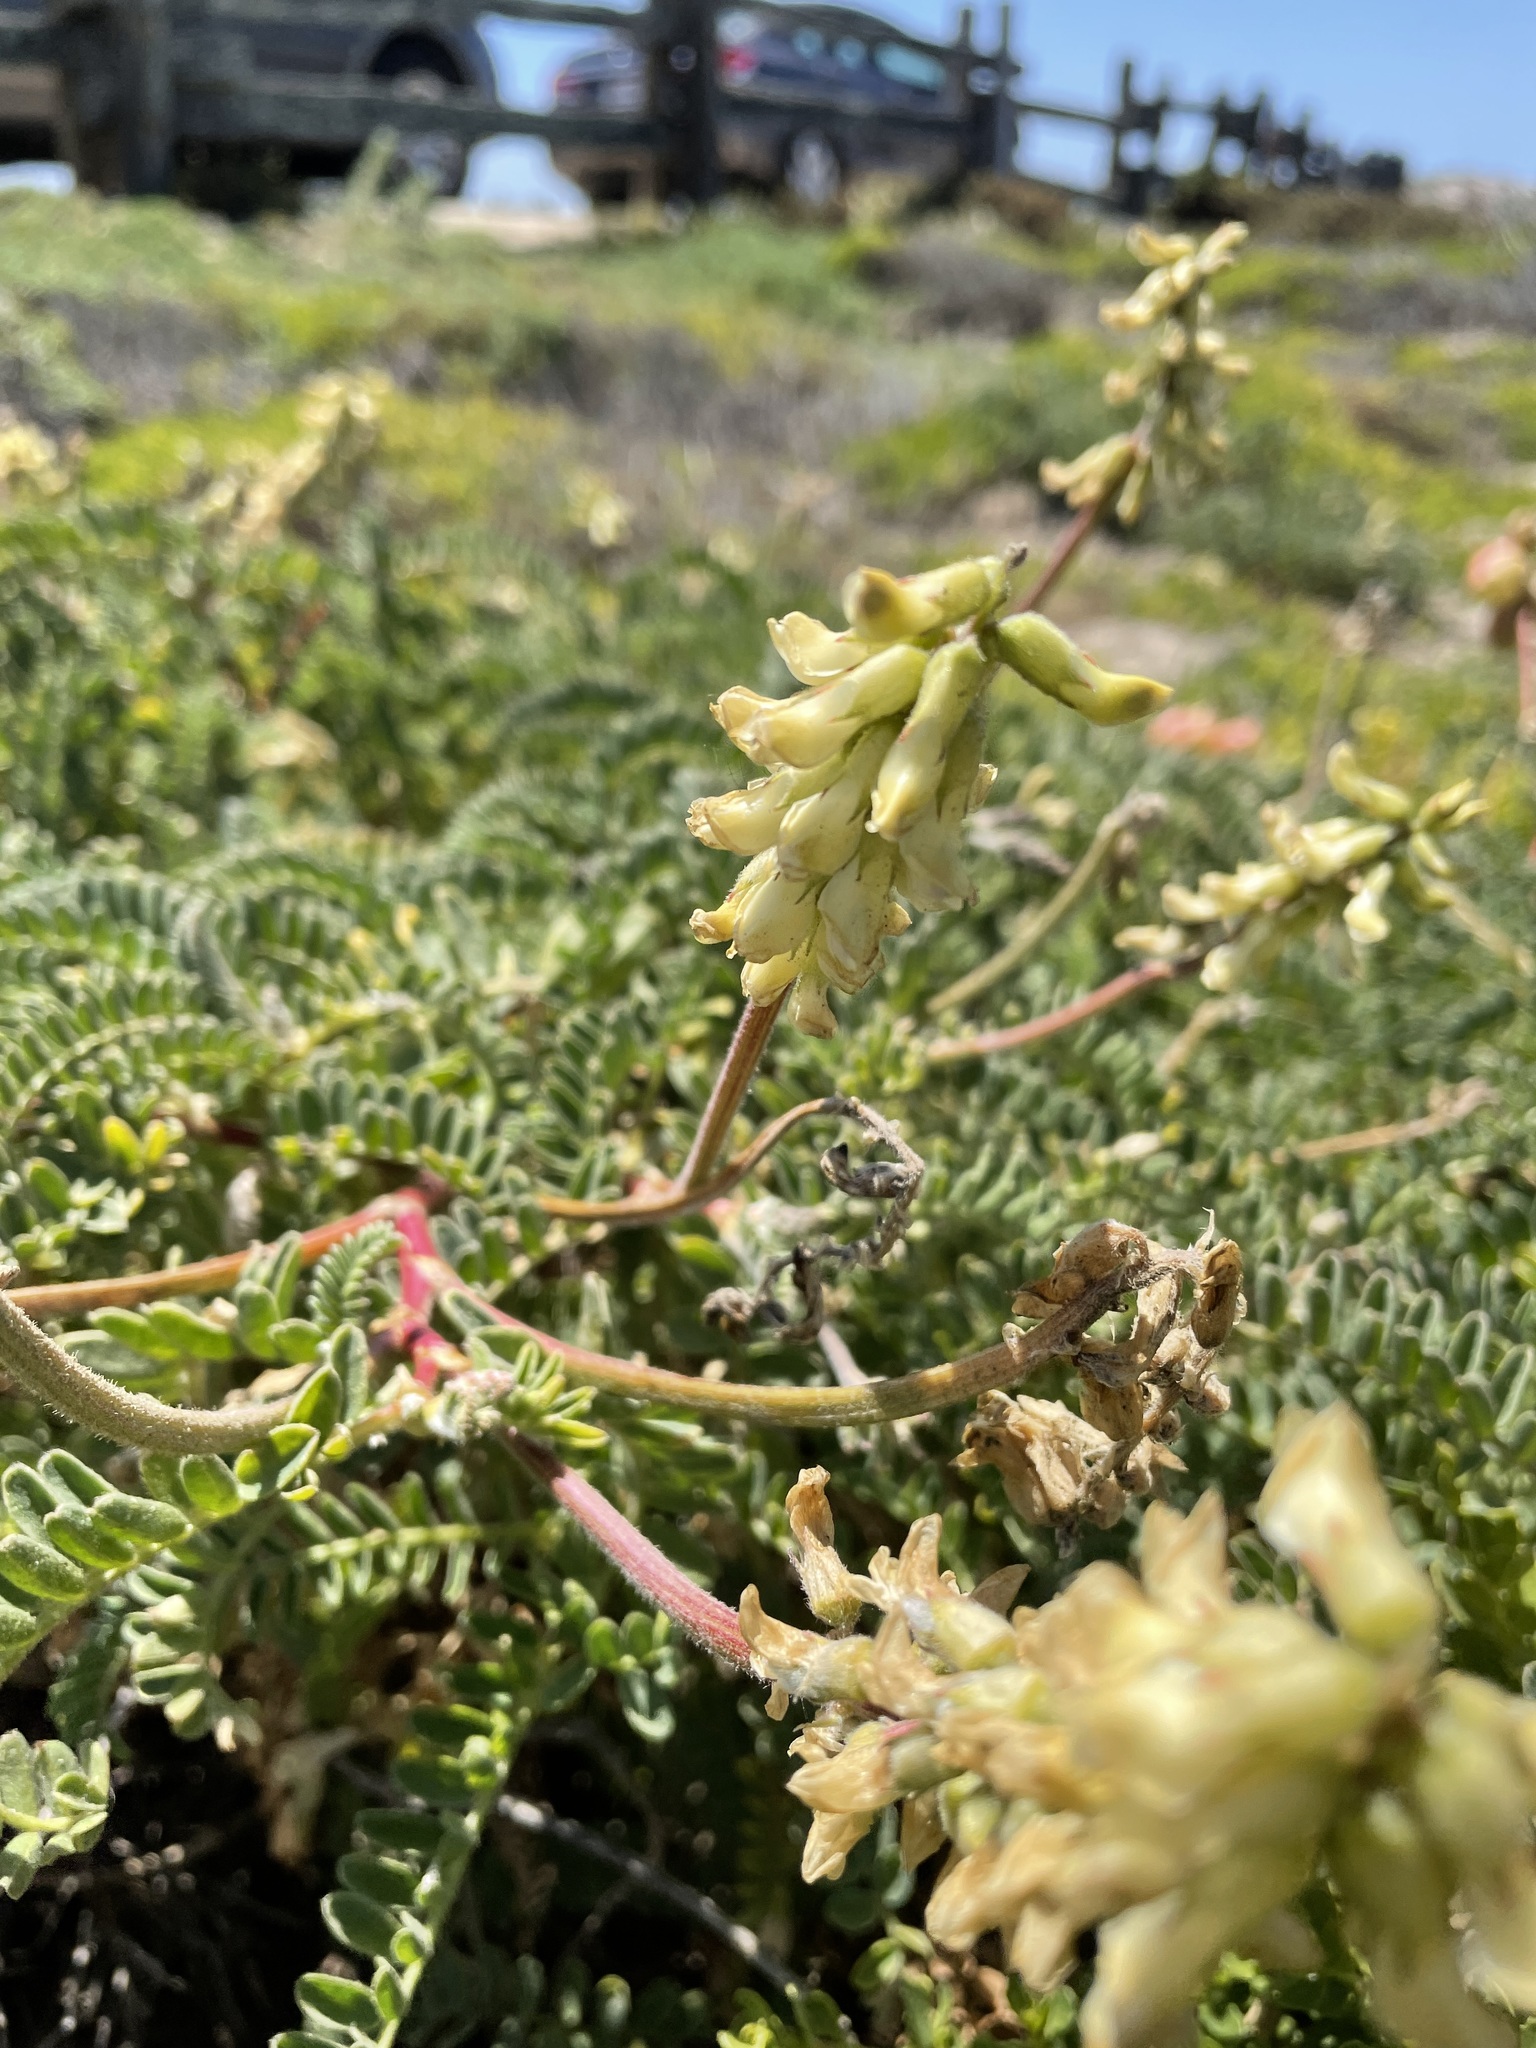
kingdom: Plantae
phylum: Tracheophyta
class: Magnoliopsida
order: Fabales
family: Fabaceae
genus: Astragalus
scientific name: Astragalus nuttallii
